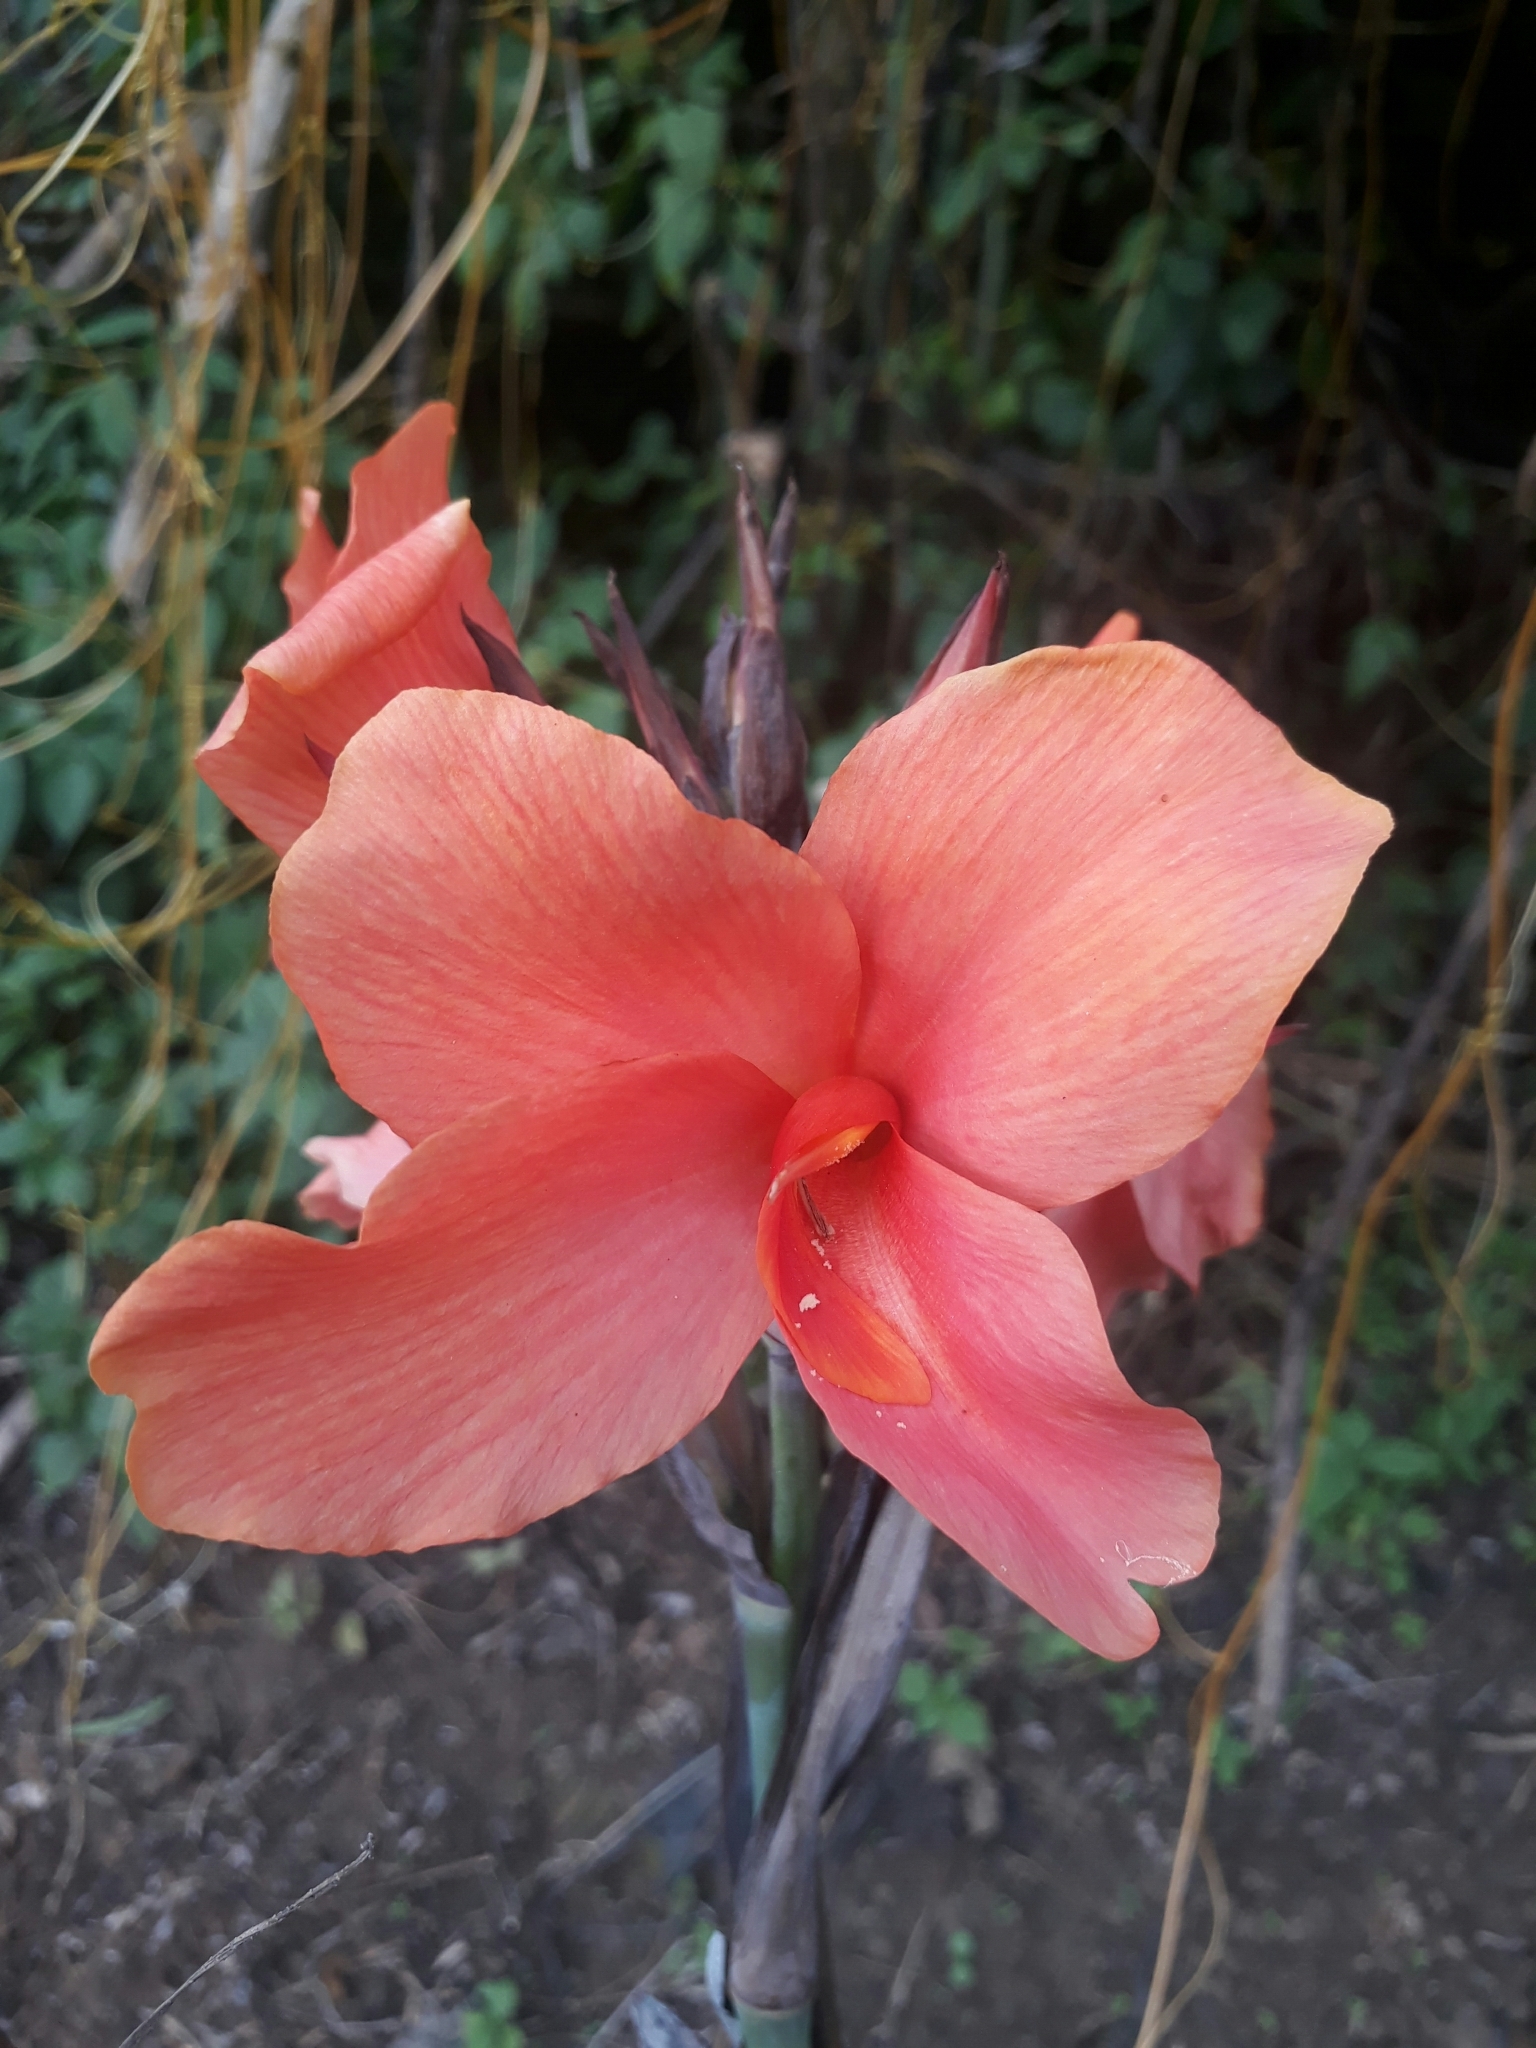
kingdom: Plantae
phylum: Tracheophyta
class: Liliopsida
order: Zingiberales
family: Cannaceae
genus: Canna
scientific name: Canna hybrida
